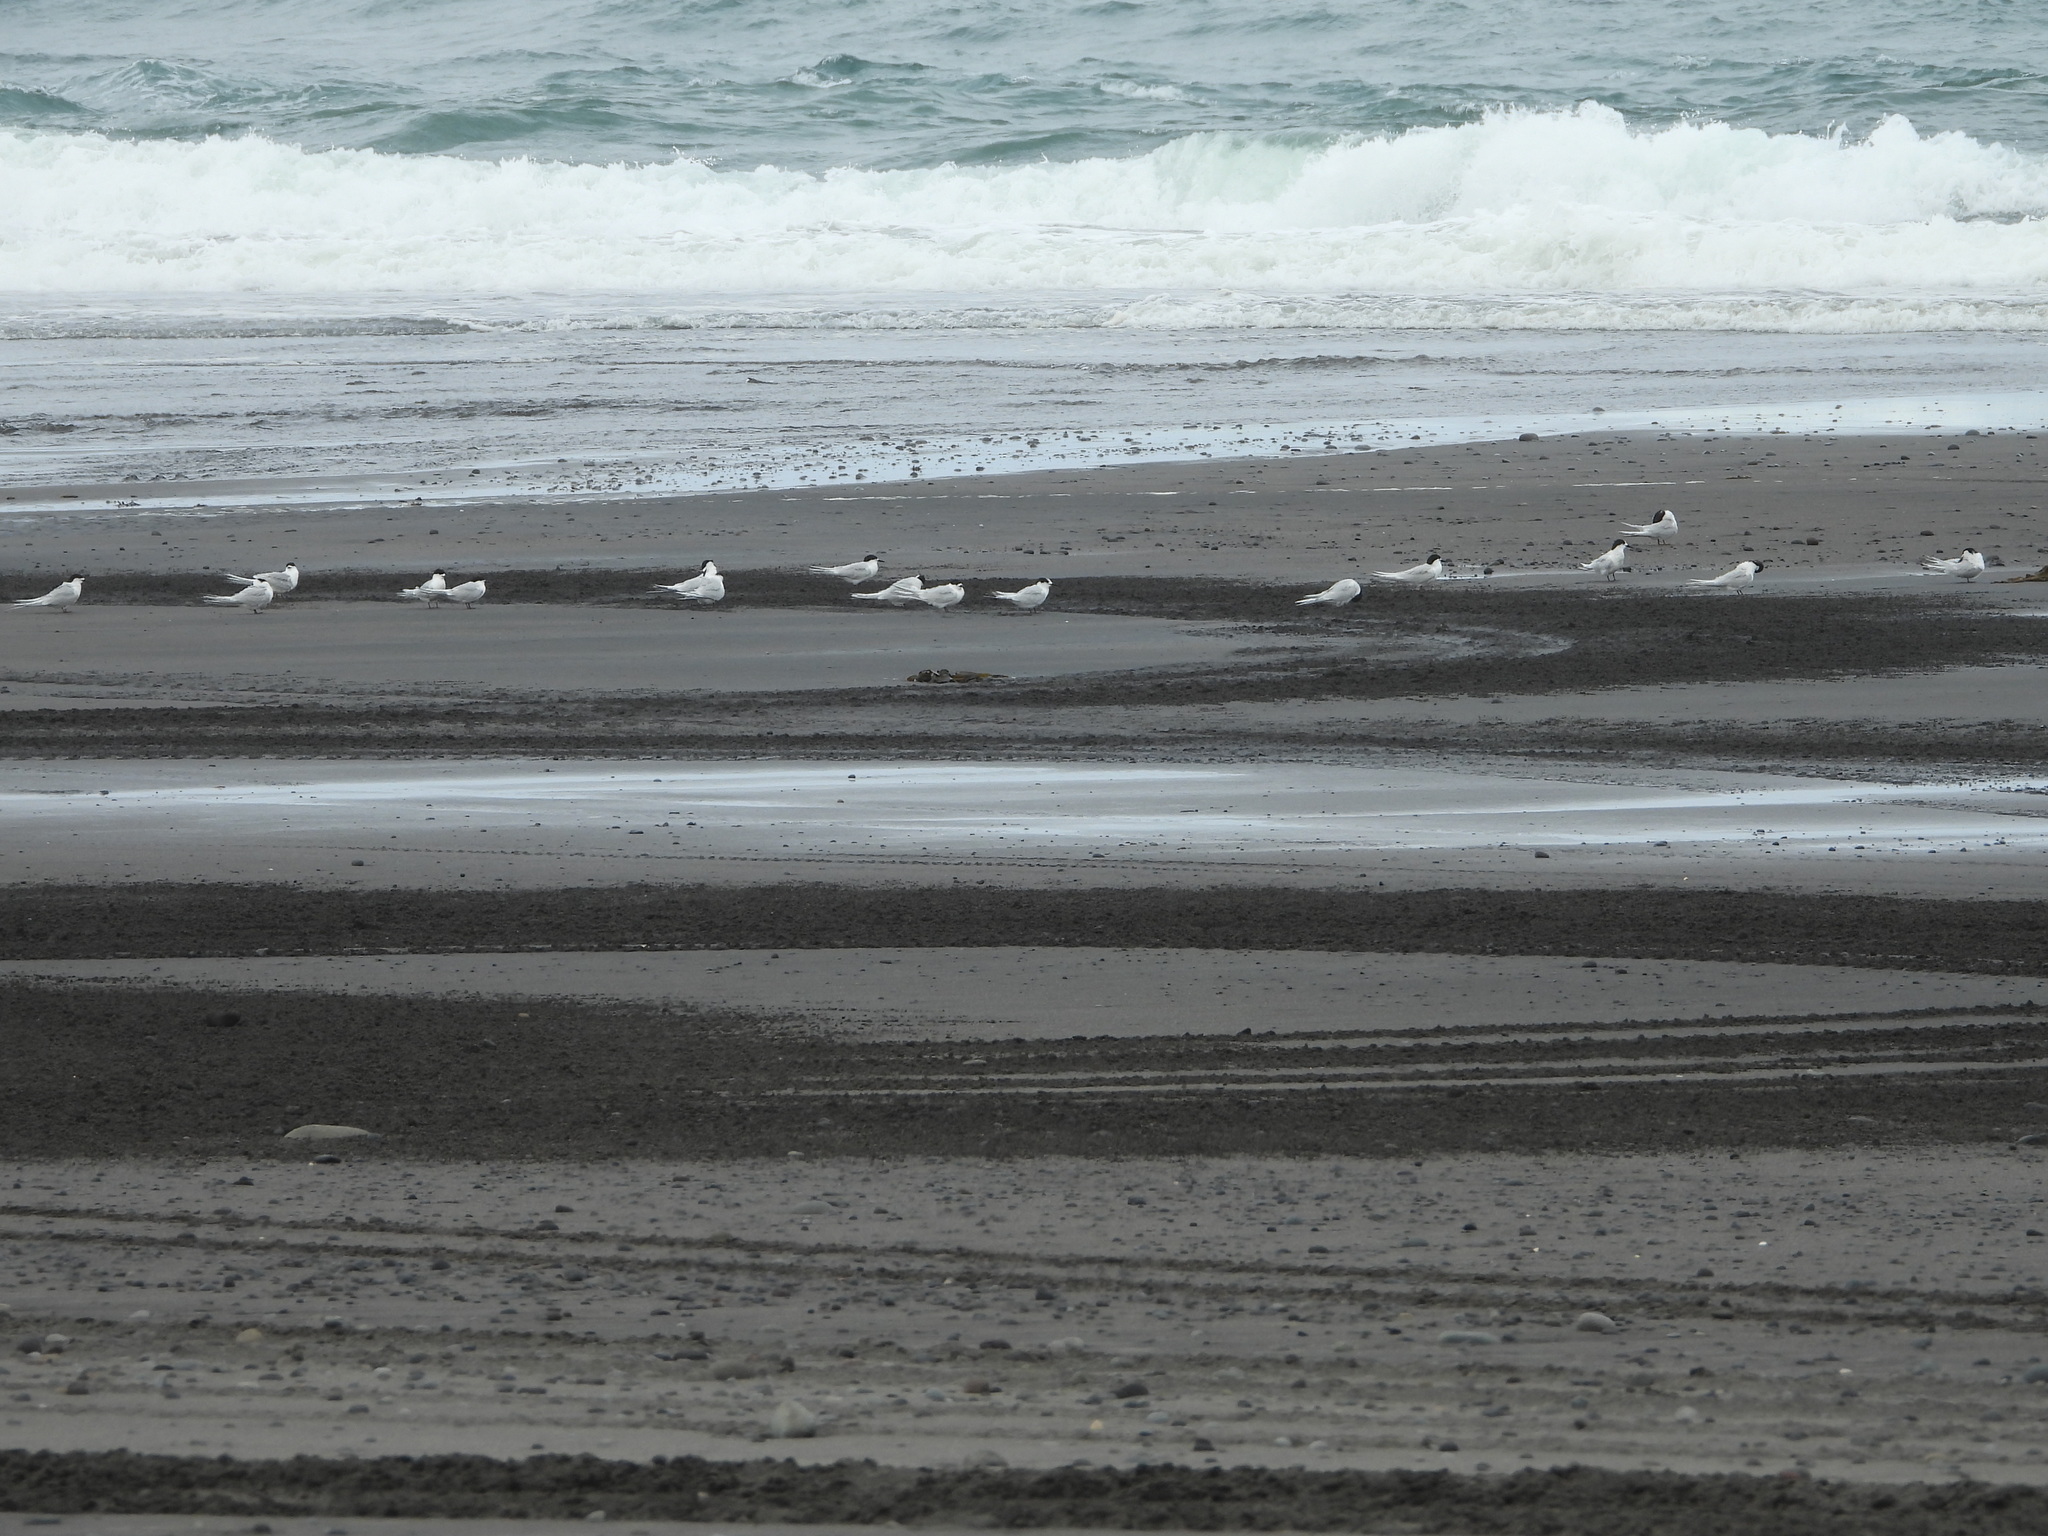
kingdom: Animalia
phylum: Chordata
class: Aves
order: Charadriiformes
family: Laridae
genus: Sterna
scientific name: Sterna striata
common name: White-fronted tern
